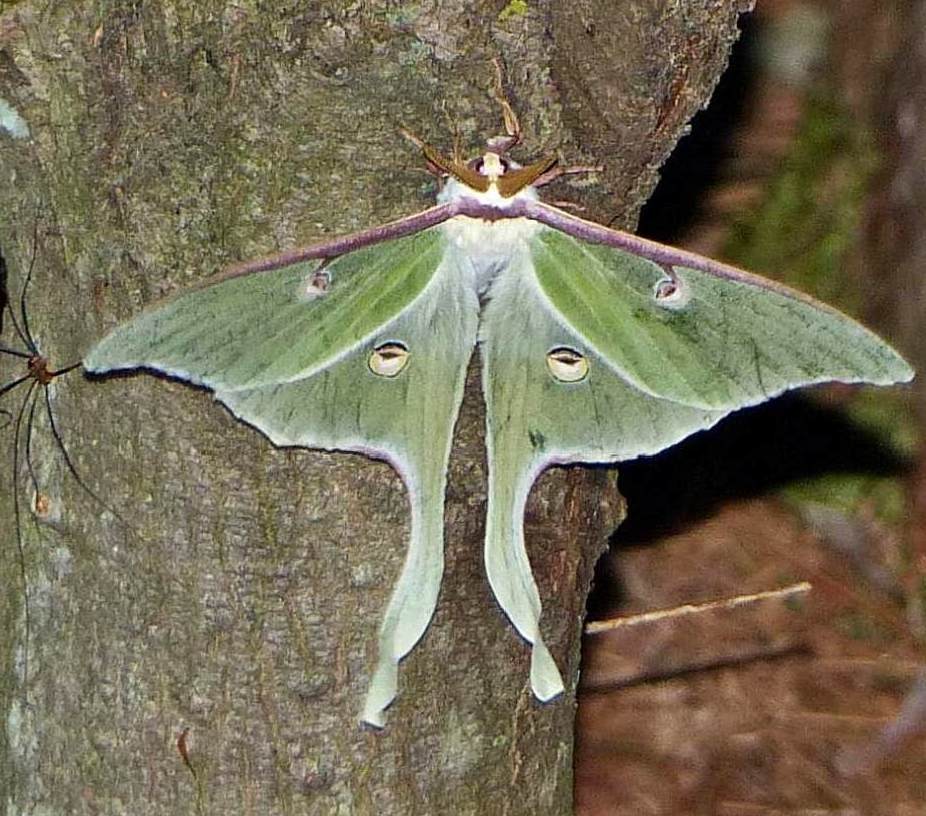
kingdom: Animalia
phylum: Arthropoda
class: Insecta
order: Lepidoptera
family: Saturniidae
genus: Actias
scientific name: Actias luna
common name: Luna moth
